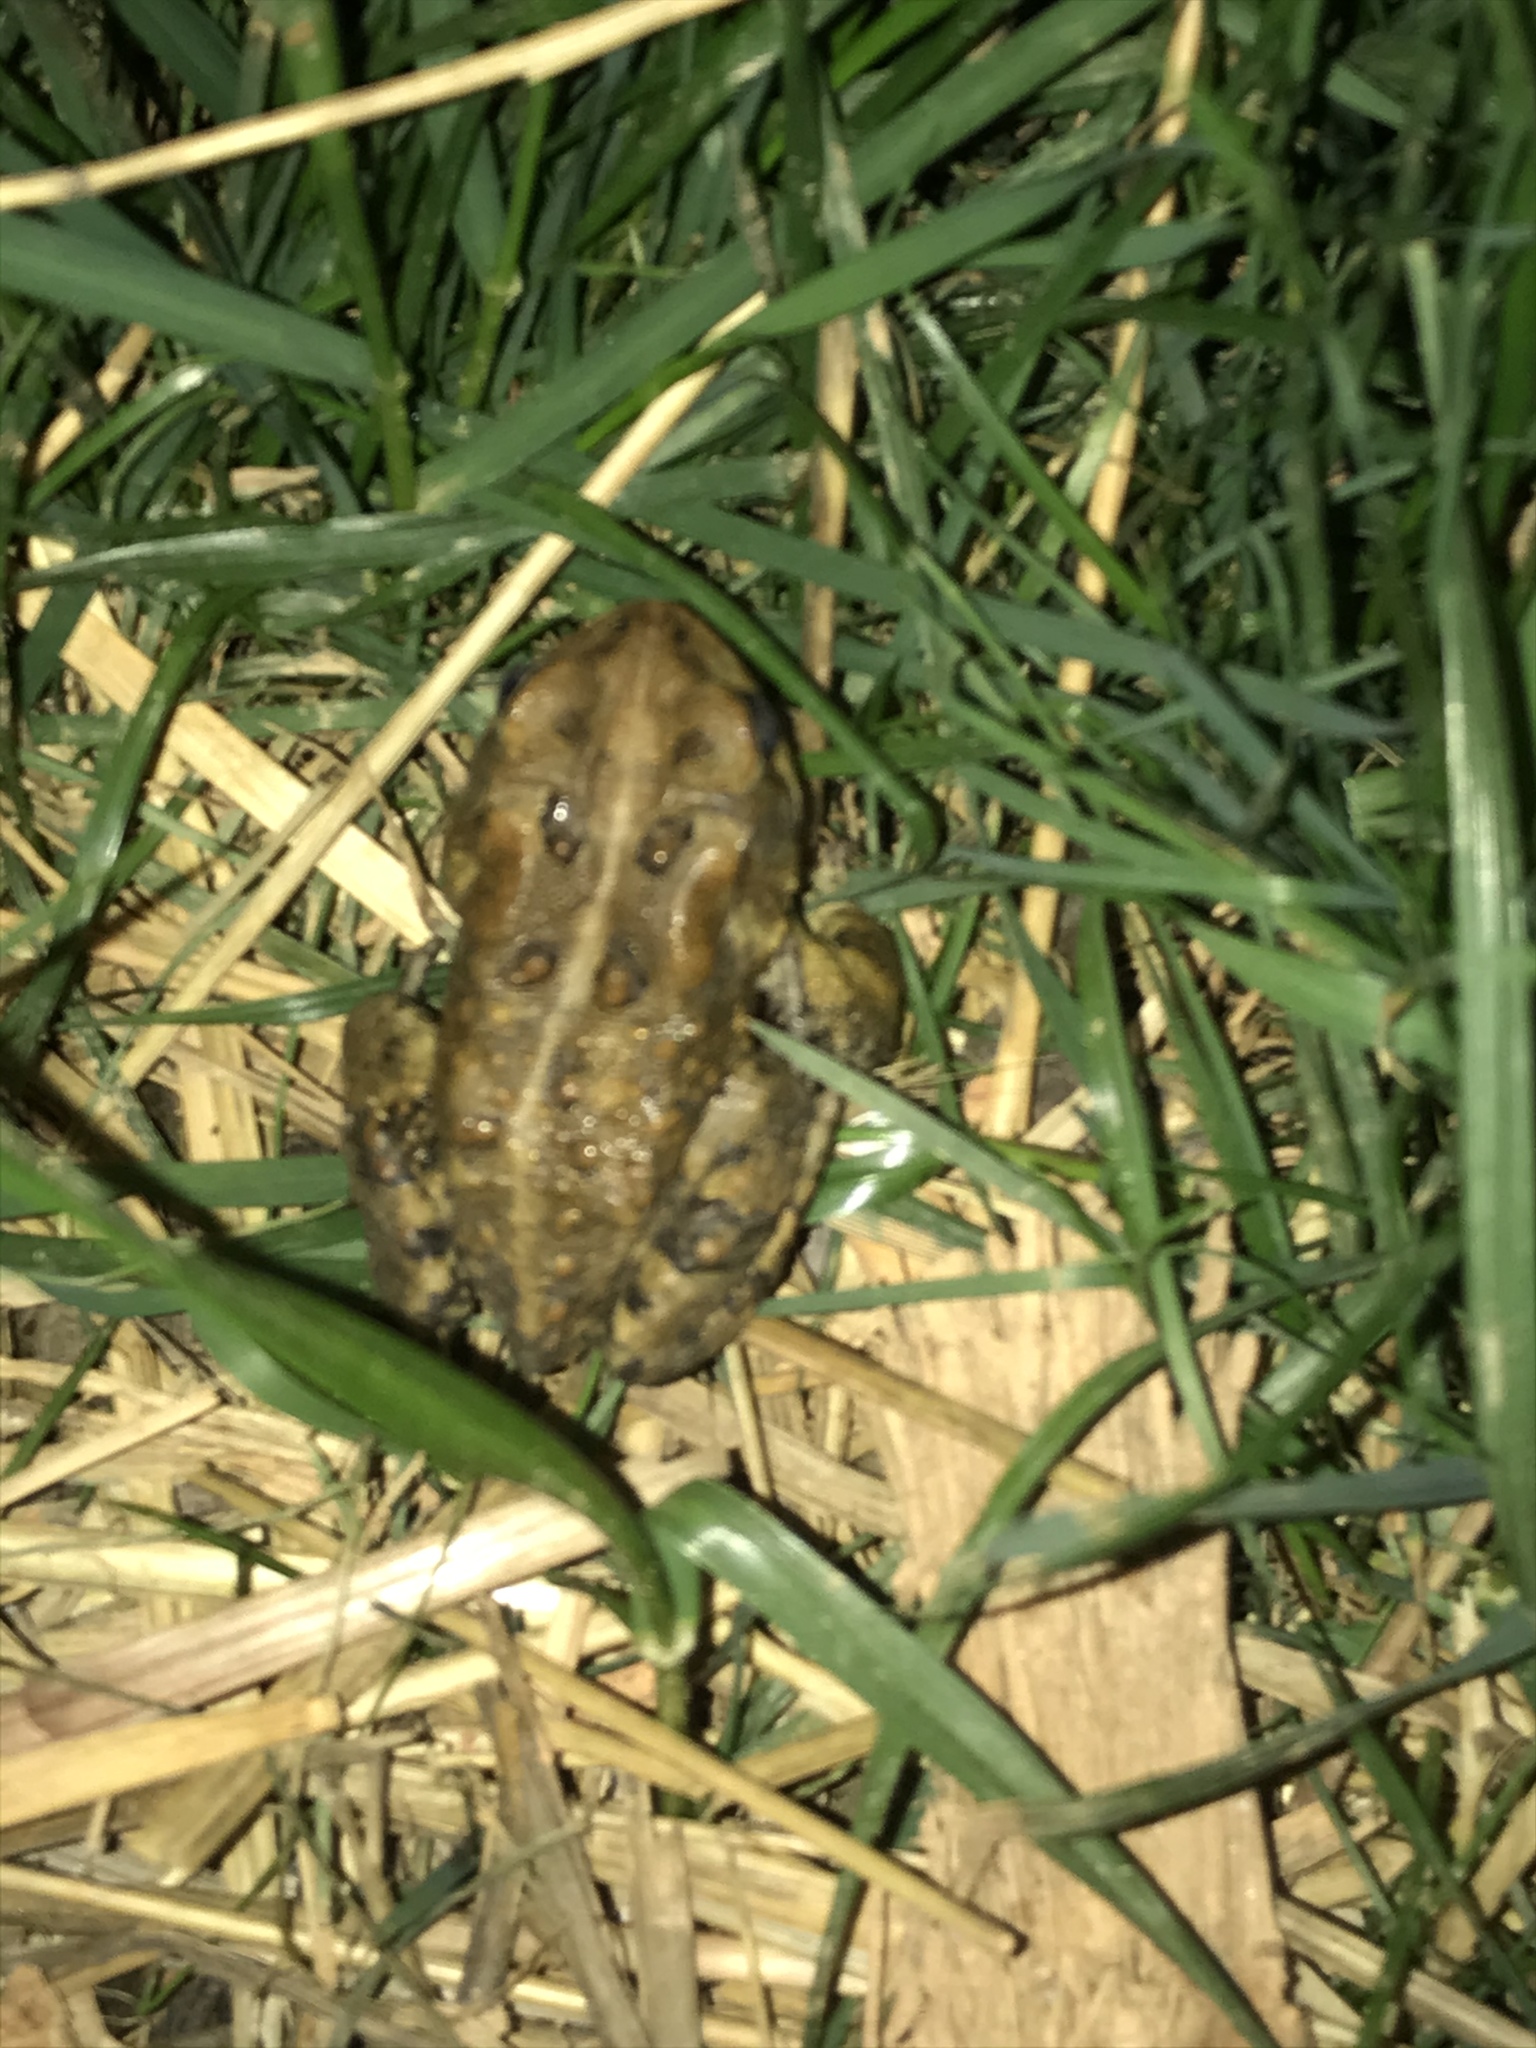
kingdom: Animalia
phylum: Chordata
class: Amphibia
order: Anura
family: Bufonidae
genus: Anaxyrus
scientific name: Anaxyrus americanus
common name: American toad
